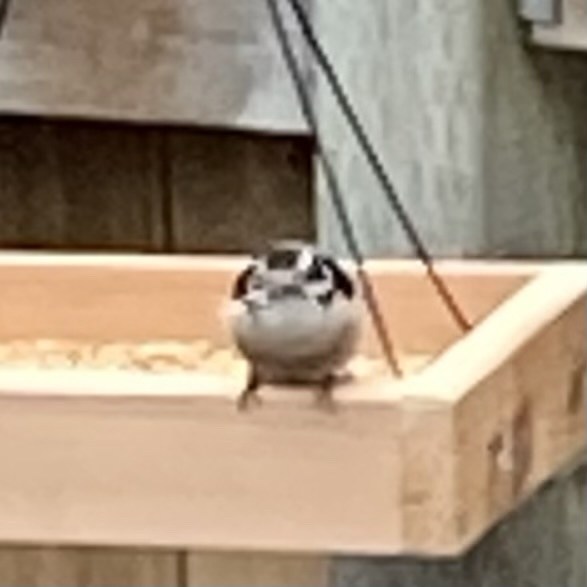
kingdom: Animalia
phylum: Chordata
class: Aves
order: Piciformes
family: Picidae
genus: Dryobates
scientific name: Dryobates pubescens
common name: Downy woodpecker
